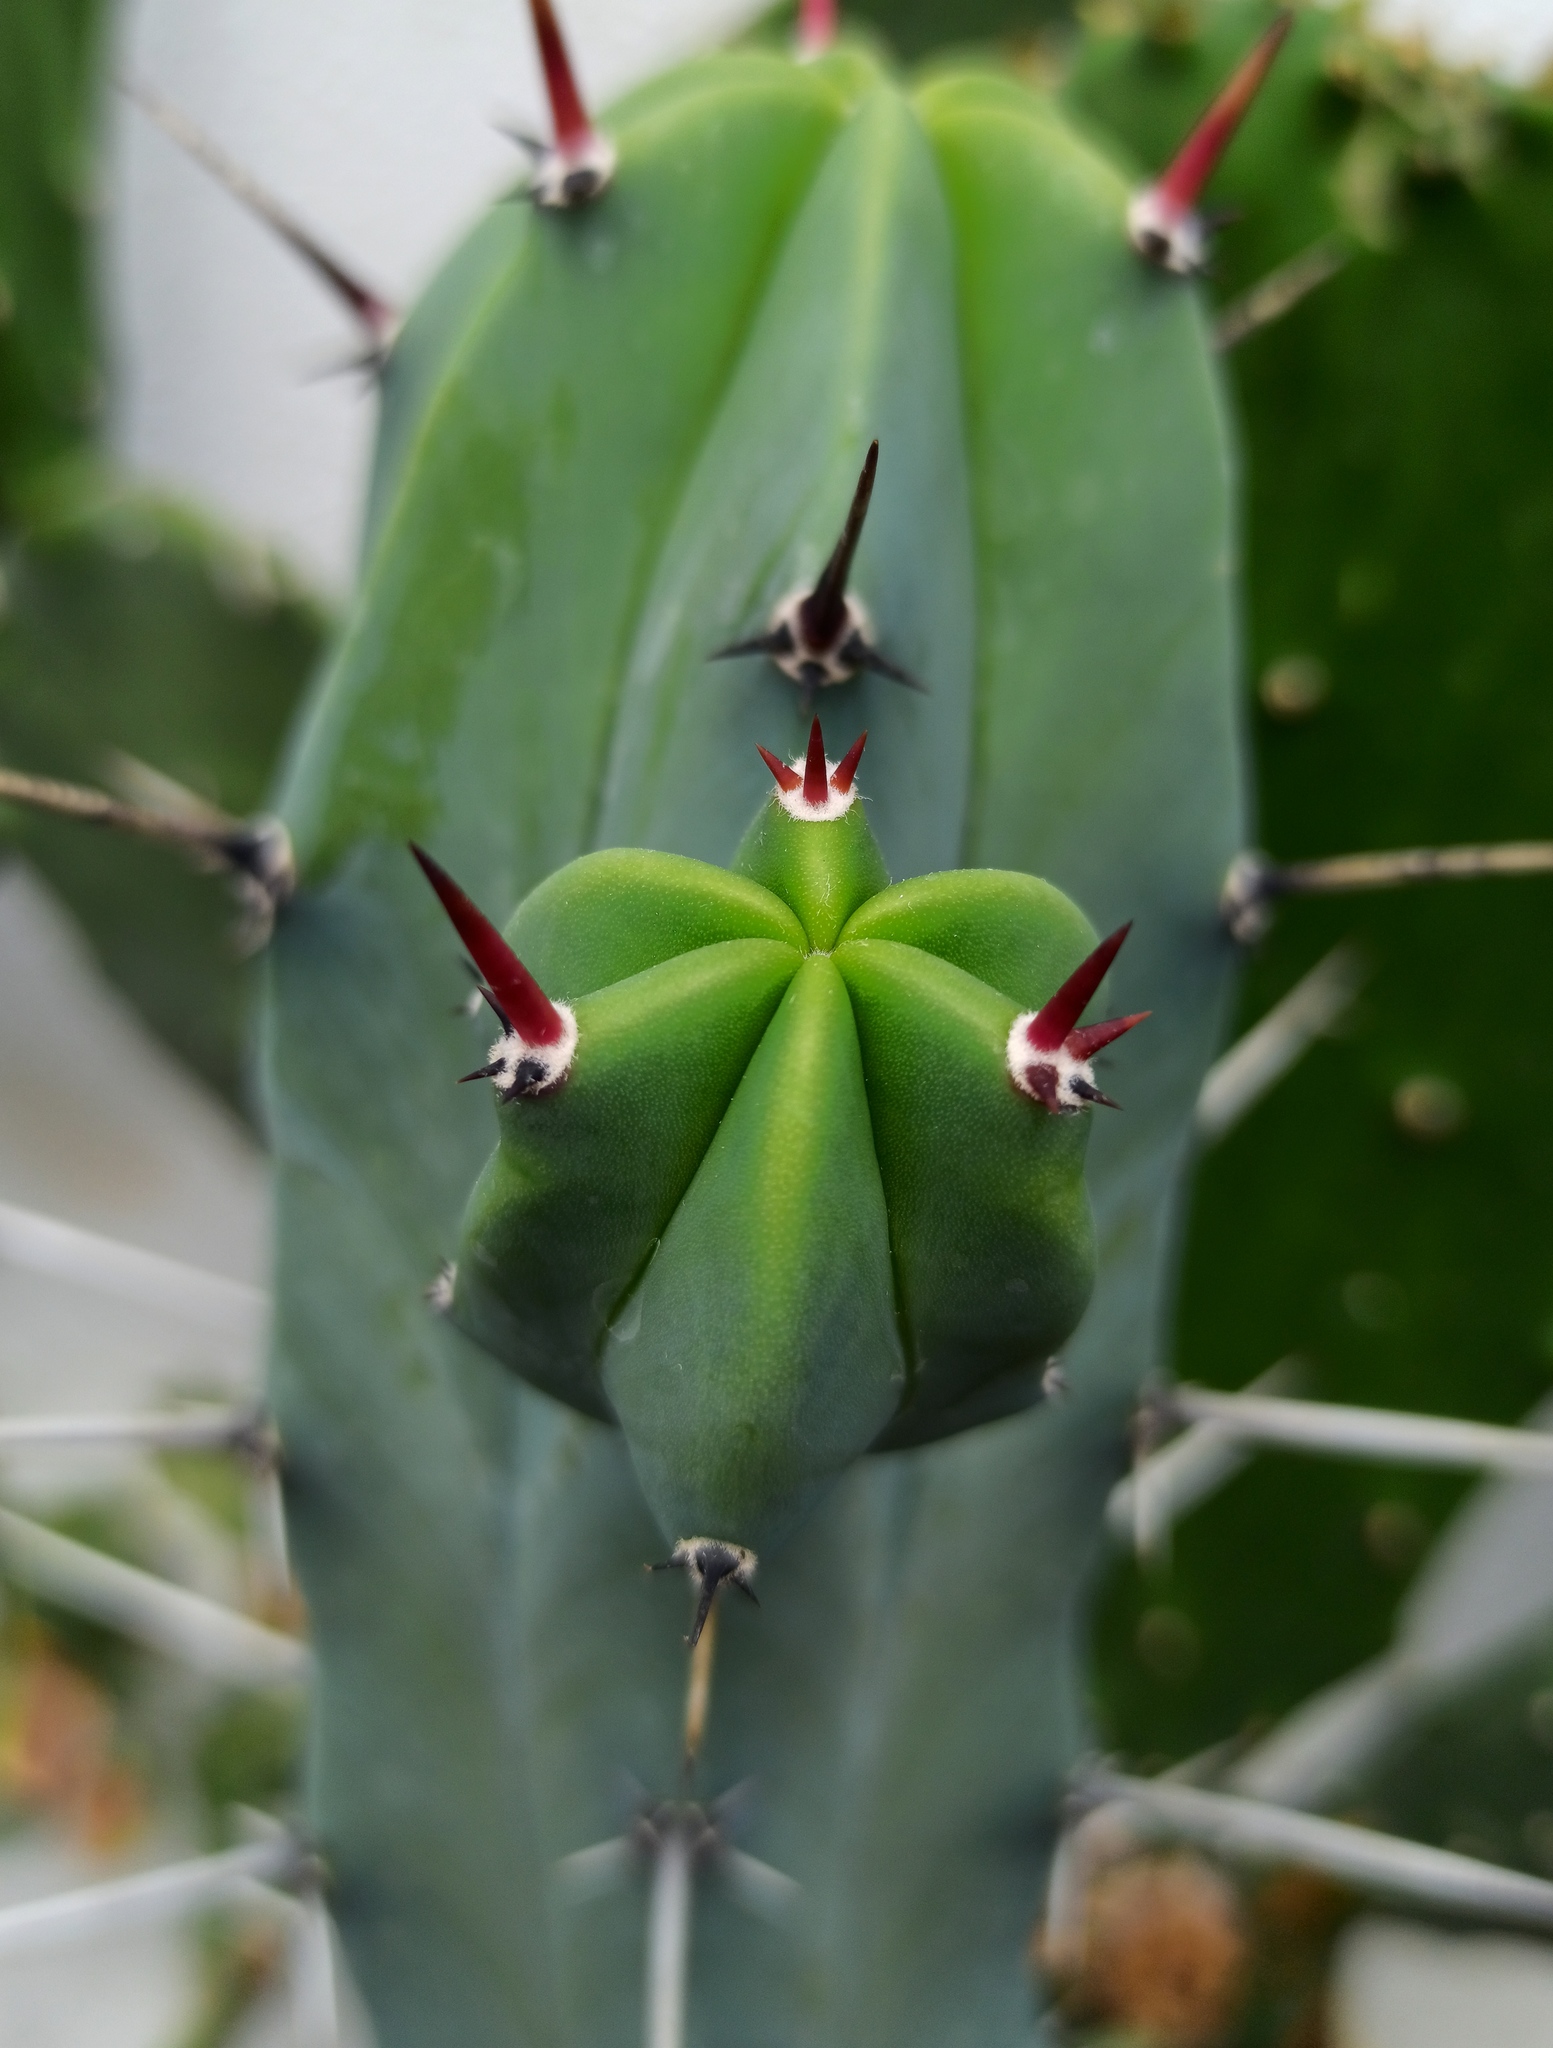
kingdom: Plantae
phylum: Tracheophyta
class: Magnoliopsida
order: Caryophyllales
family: Cactaceae
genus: Myrtillocactus
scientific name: Myrtillocactus geometrizans
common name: Bilberry cactus
